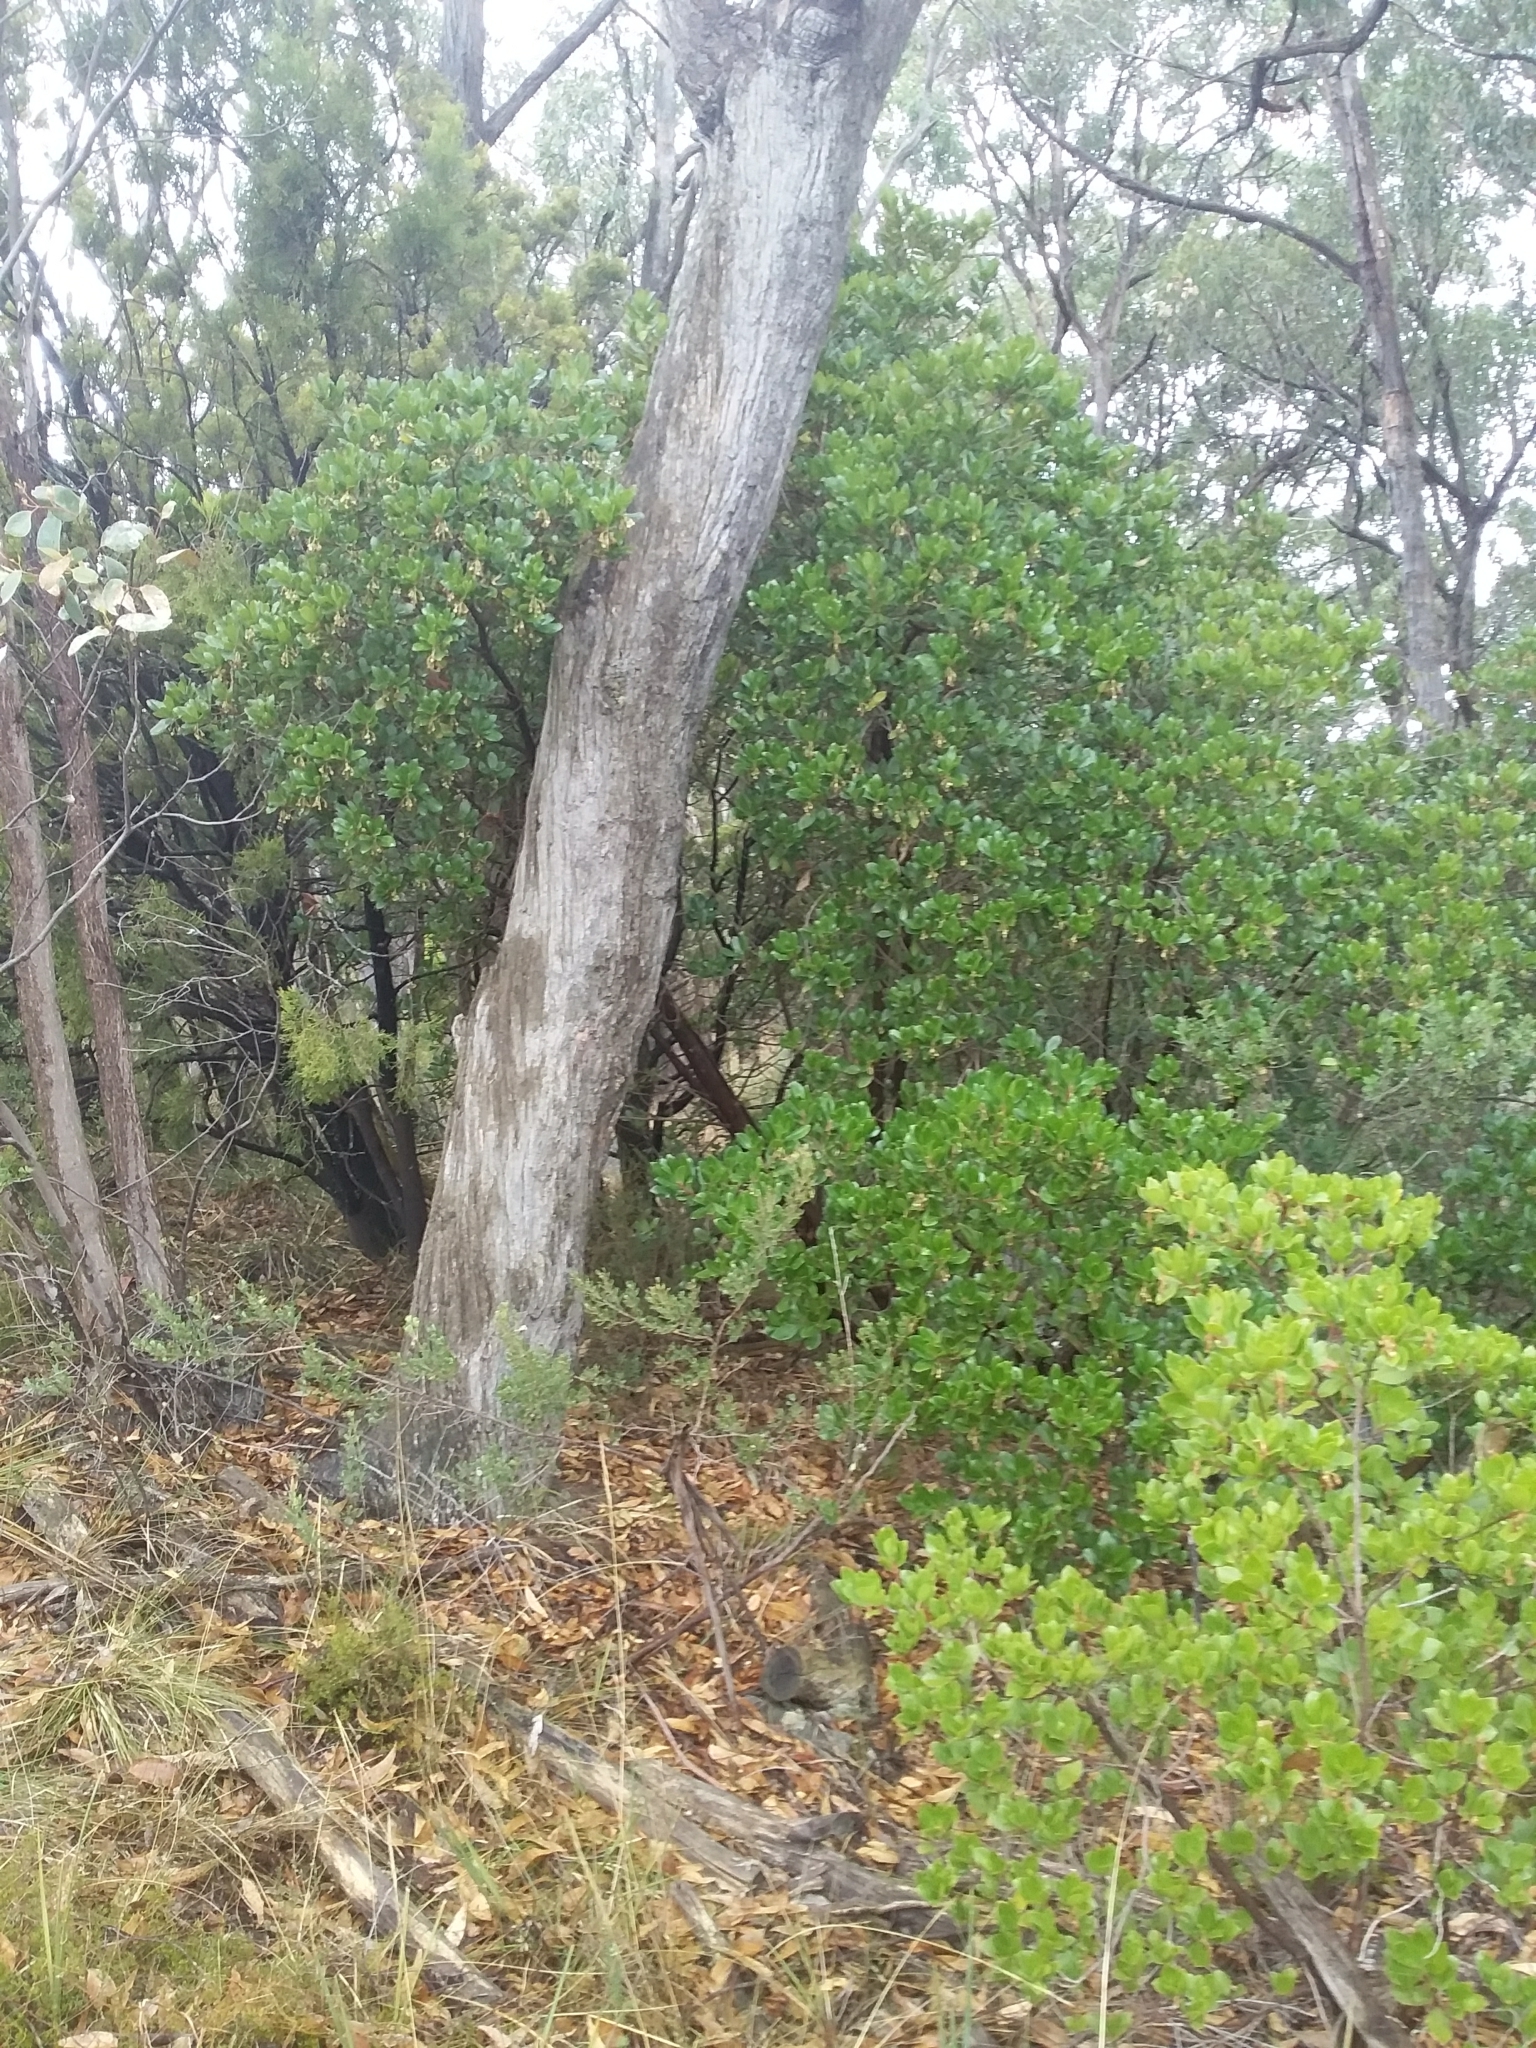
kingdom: Plantae
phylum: Tracheophyta
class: Magnoliopsida
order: Ericales
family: Ericaceae
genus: Arbutus
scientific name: Arbutus unedo
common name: Strawberry-tree
